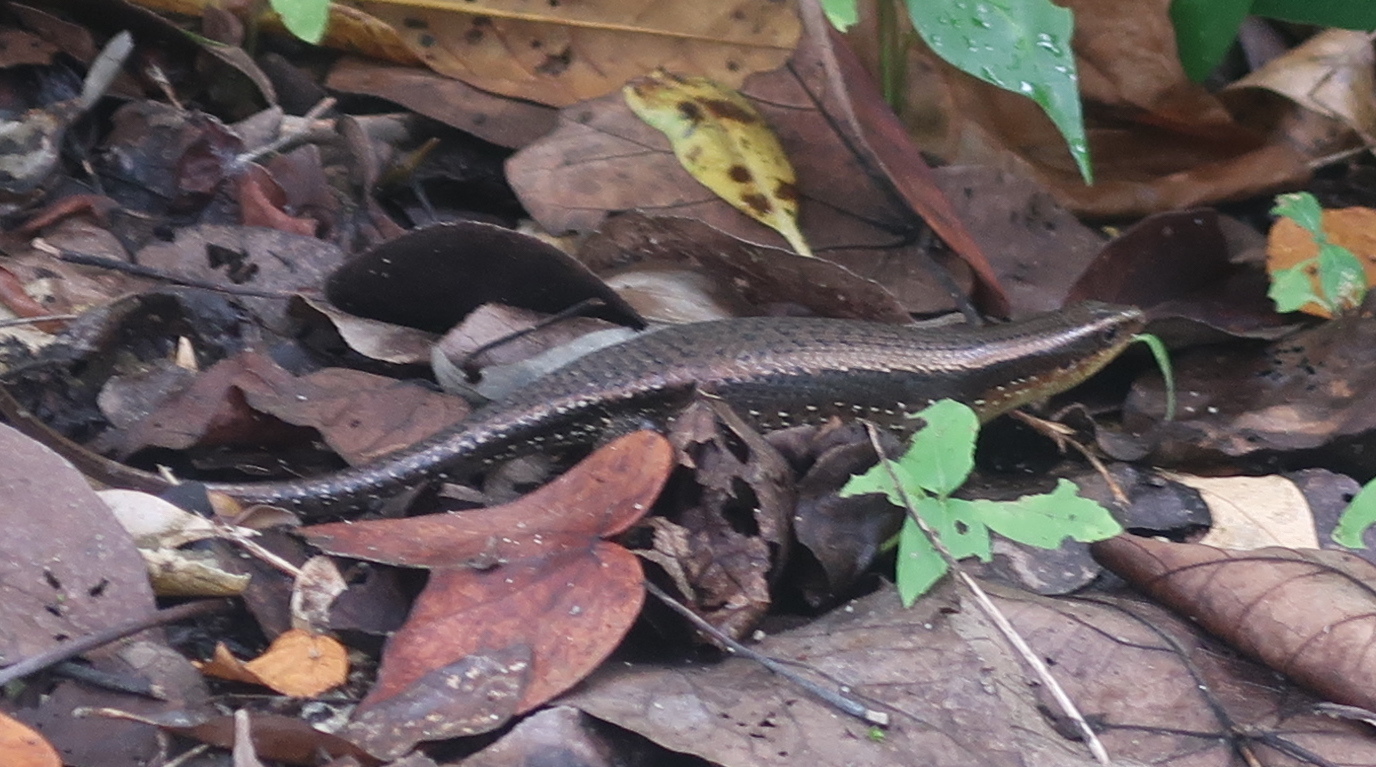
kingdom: Animalia
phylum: Chordata
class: Squamata
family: Scincidae
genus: Eutropis
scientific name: Eutropis multifasciata
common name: Common mabuya
